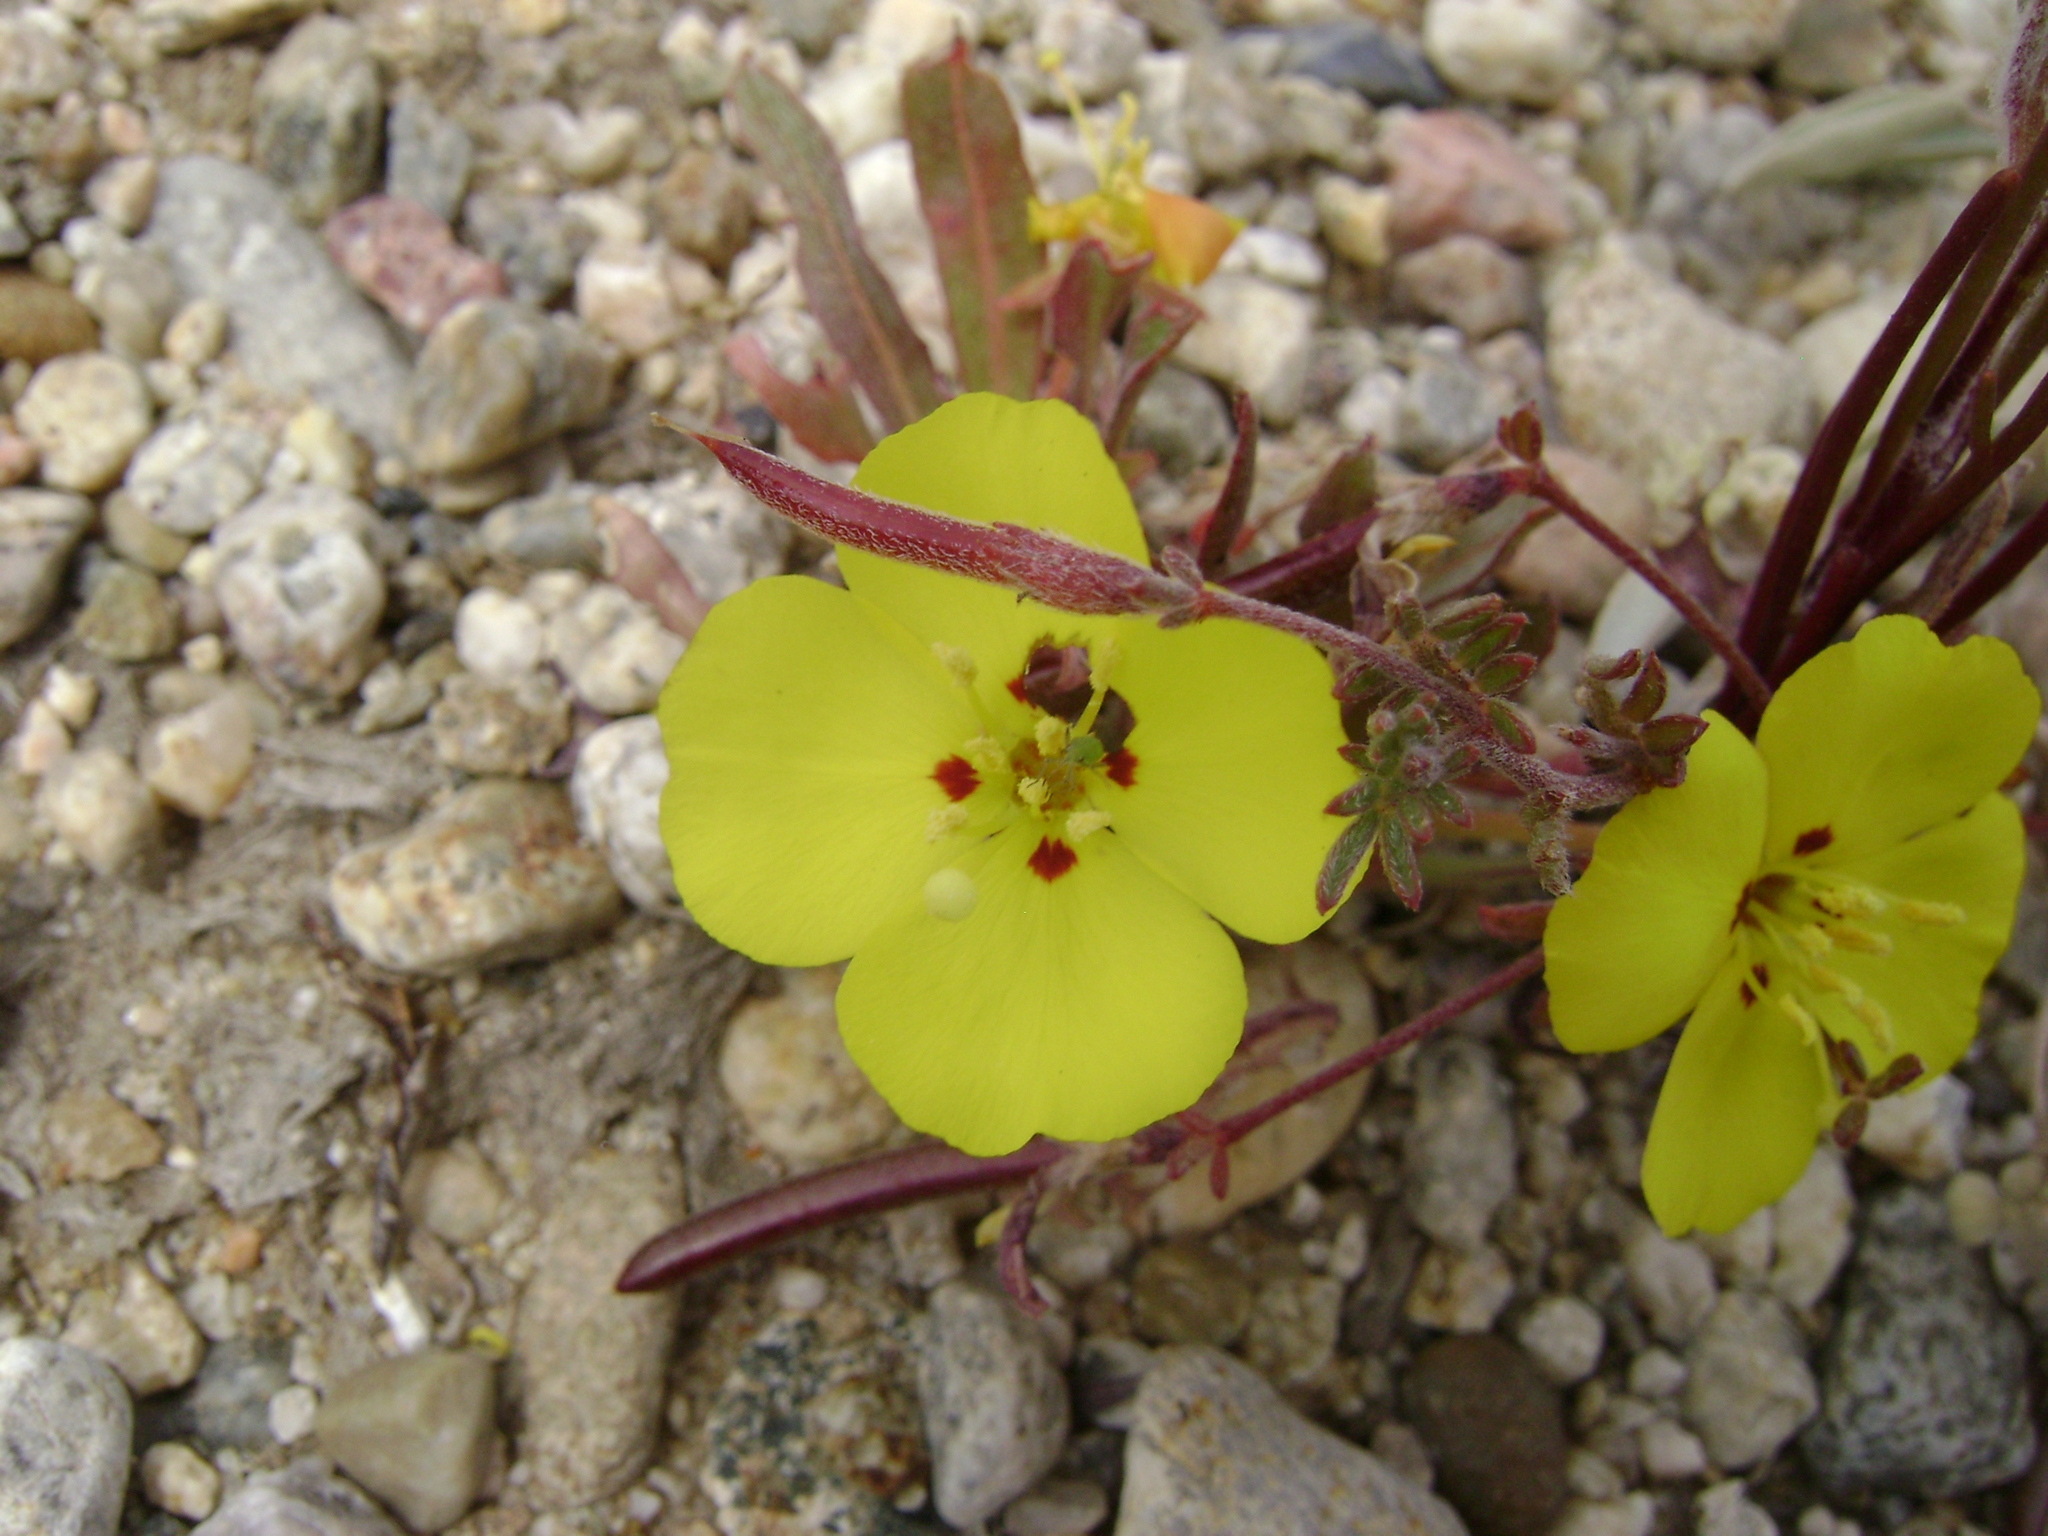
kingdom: Plantae
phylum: Tracheophyta
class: Magnoliopsida
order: Myrtales
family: Onagraceae
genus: Camissoniopsis
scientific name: Camissoniopsis bistorta
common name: Southern suncup
